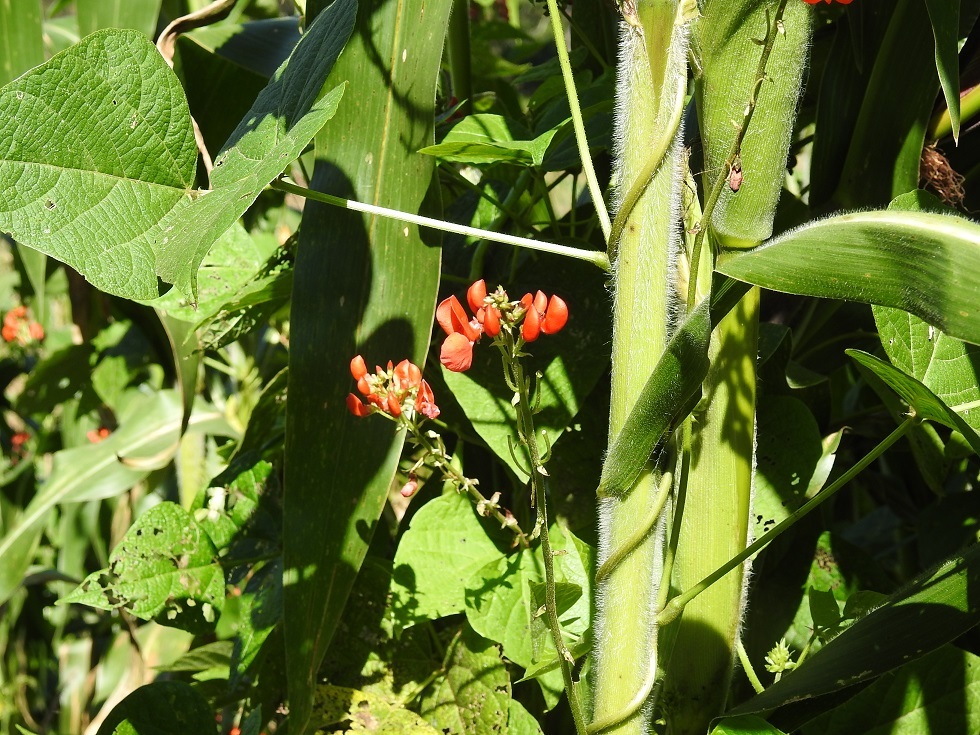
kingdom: Plantae
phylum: Tracheophyta
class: Magnoliopsida
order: Fabales
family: Fabaceae
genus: Phaseolus
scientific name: Phaseolus coccineus
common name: Runner bean
